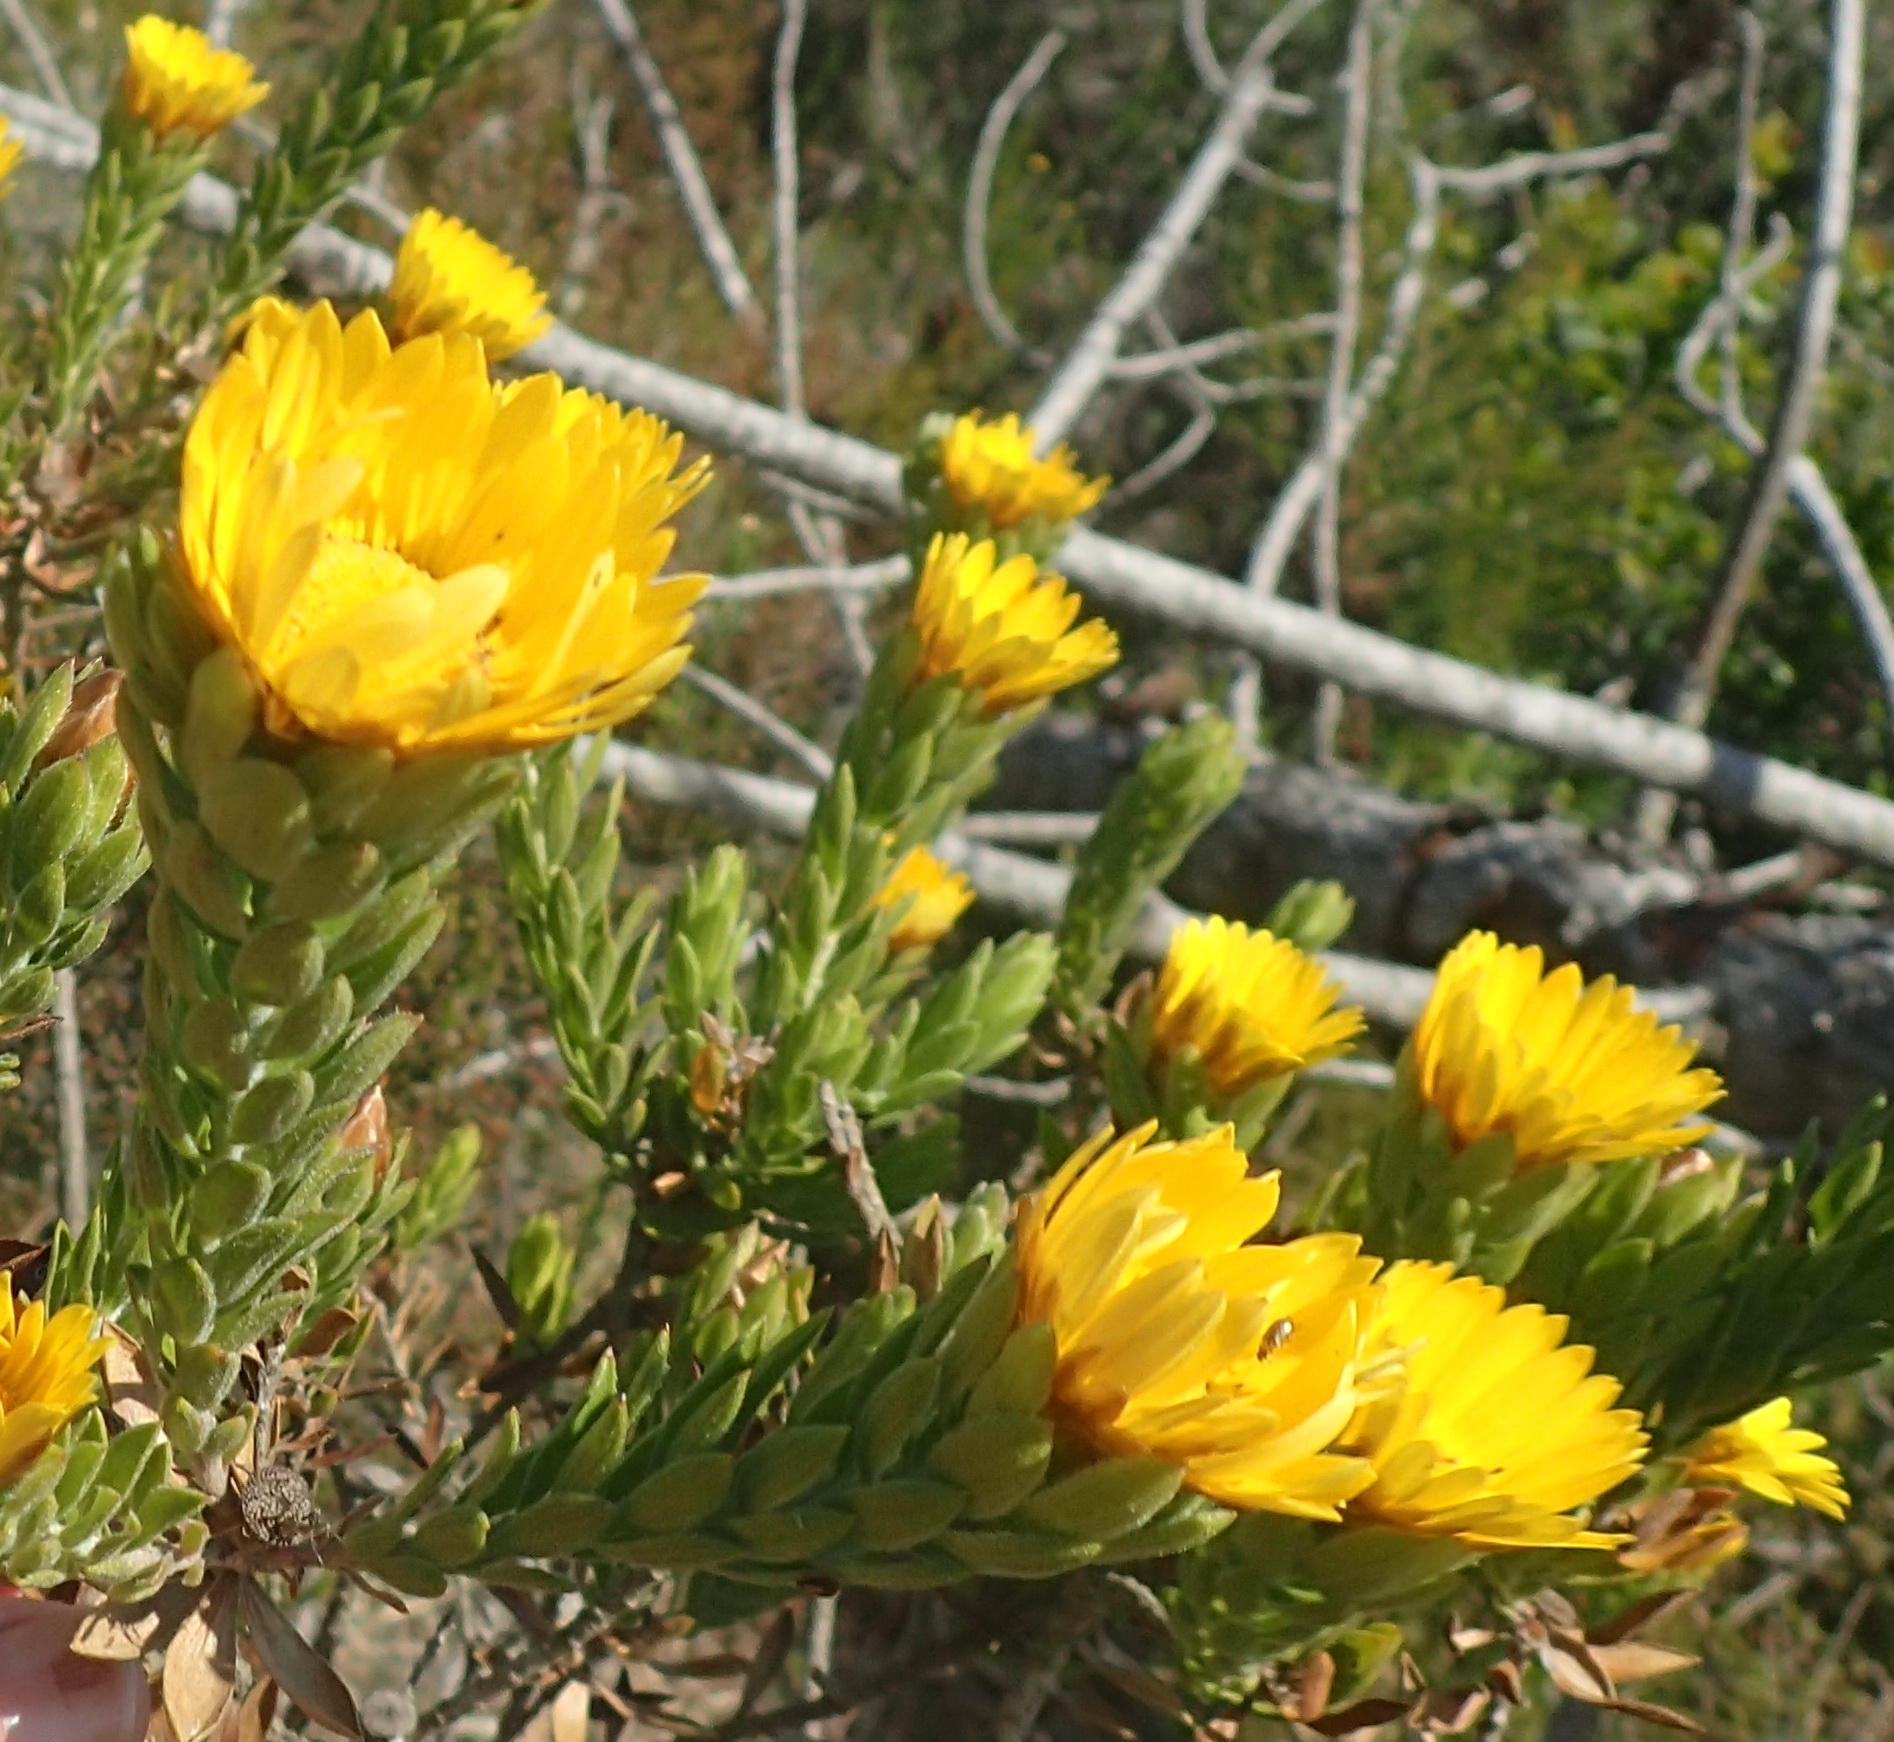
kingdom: Plantae
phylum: Tracheophyta
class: Magnoliopsida
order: Asterales
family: Asteraceae
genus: Oedera
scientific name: Oedera calycina
